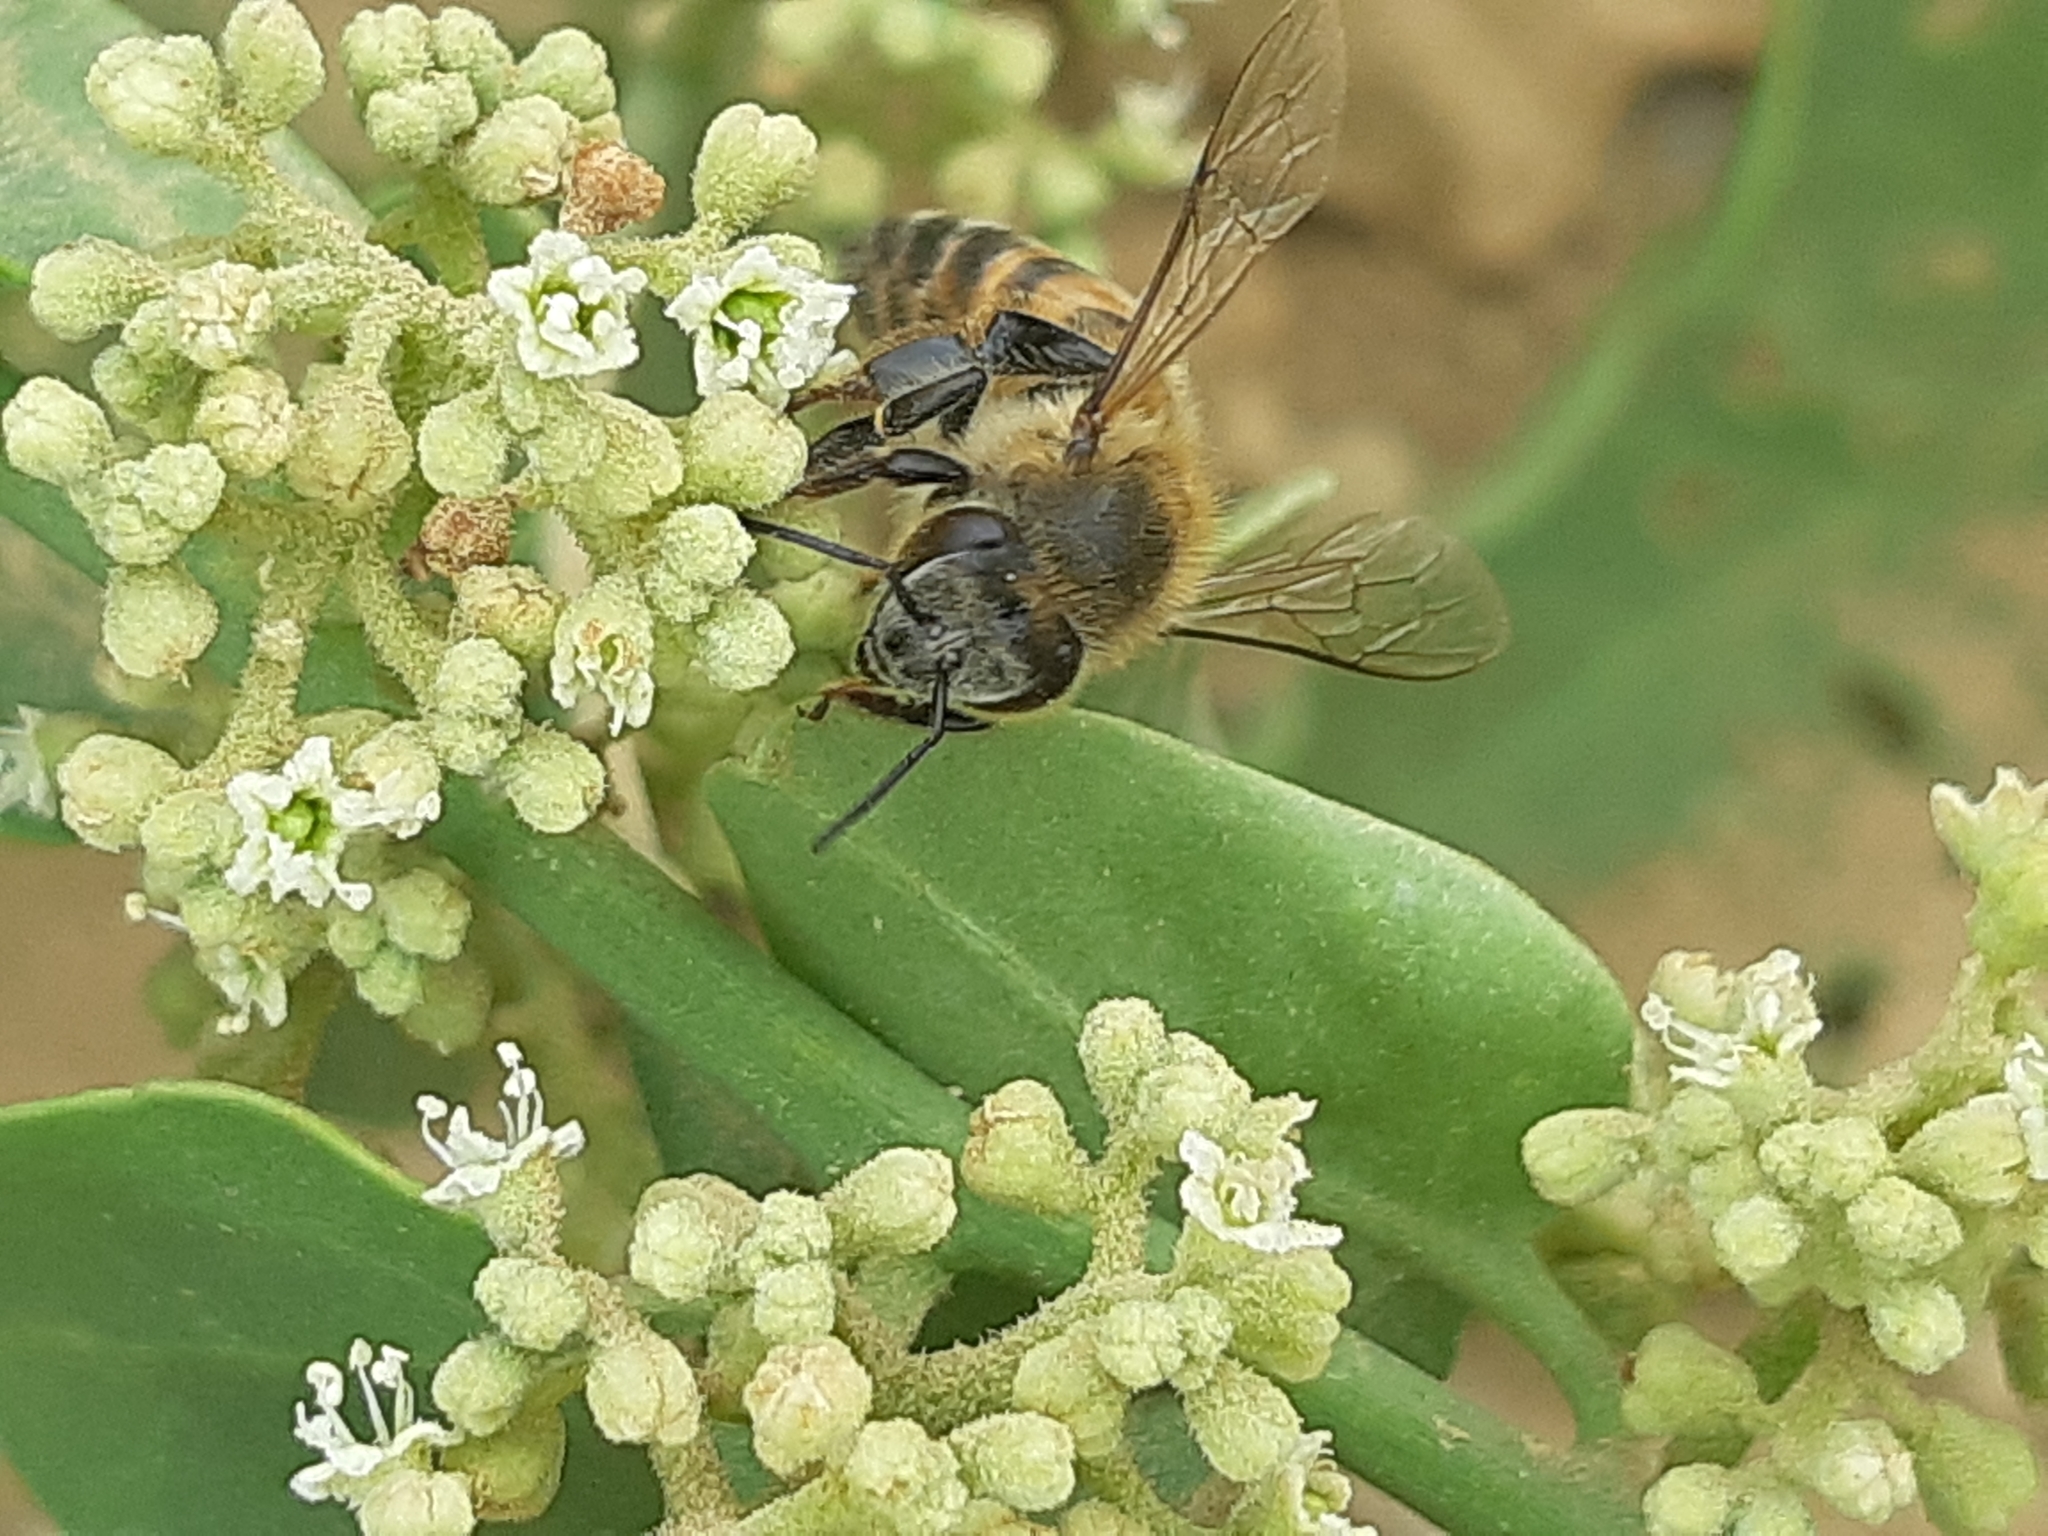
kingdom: Animalia
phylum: Arthropoda
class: Insecta
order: Hymenoptera
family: Apidae
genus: Apis
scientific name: Apis mellifera
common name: Honey bee
